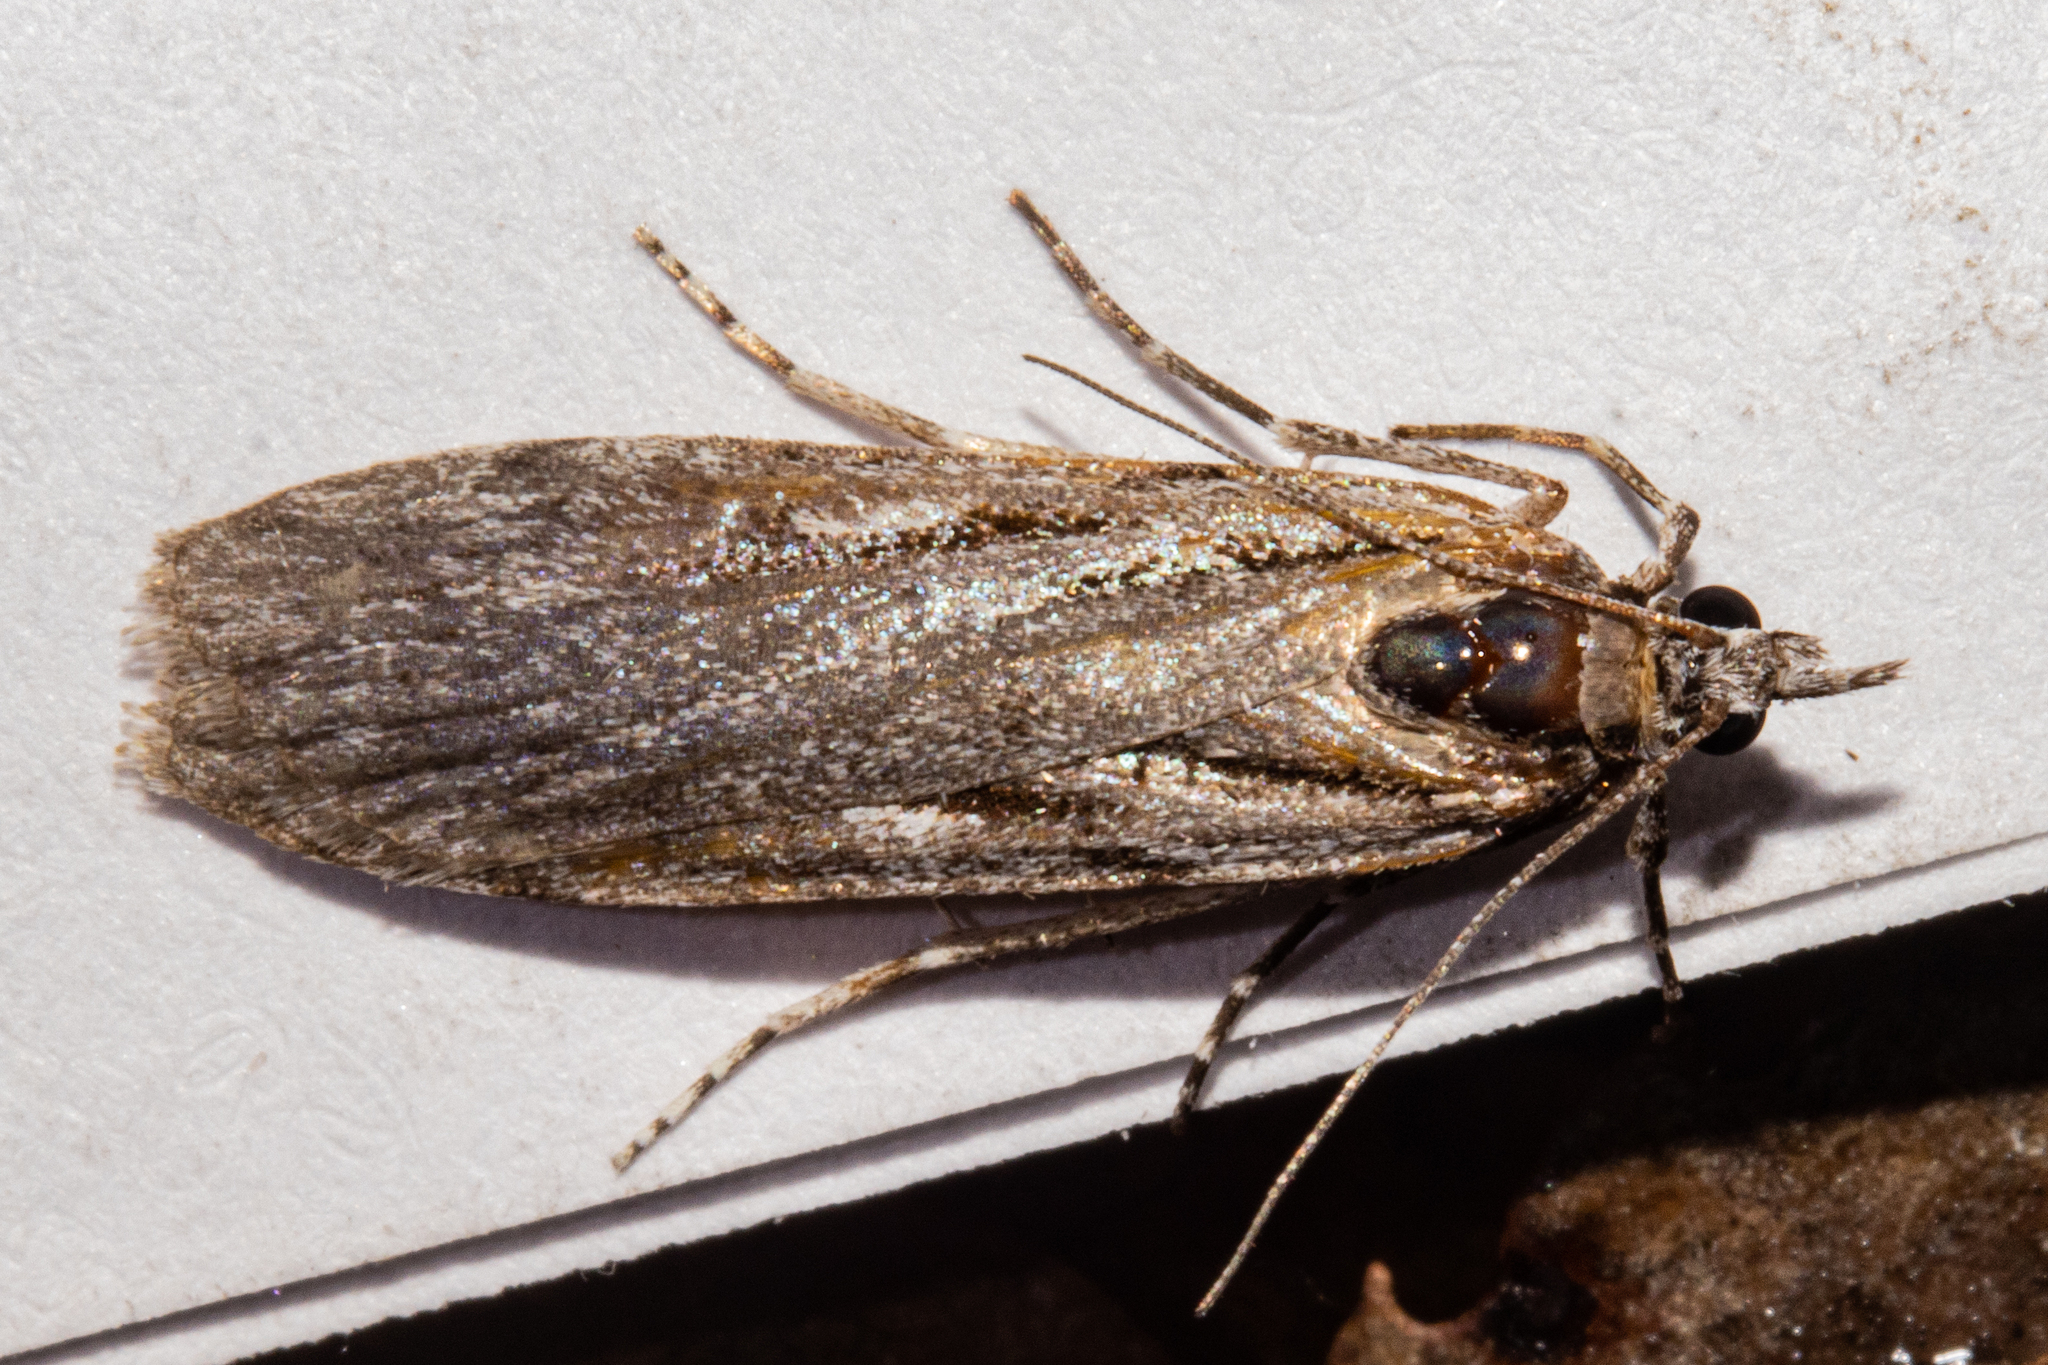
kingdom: Animalia
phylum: Arthropoda
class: Insecta
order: Lepidoptera
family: Crambidae
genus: Scoparia
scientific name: Scoparia indistinctalis
